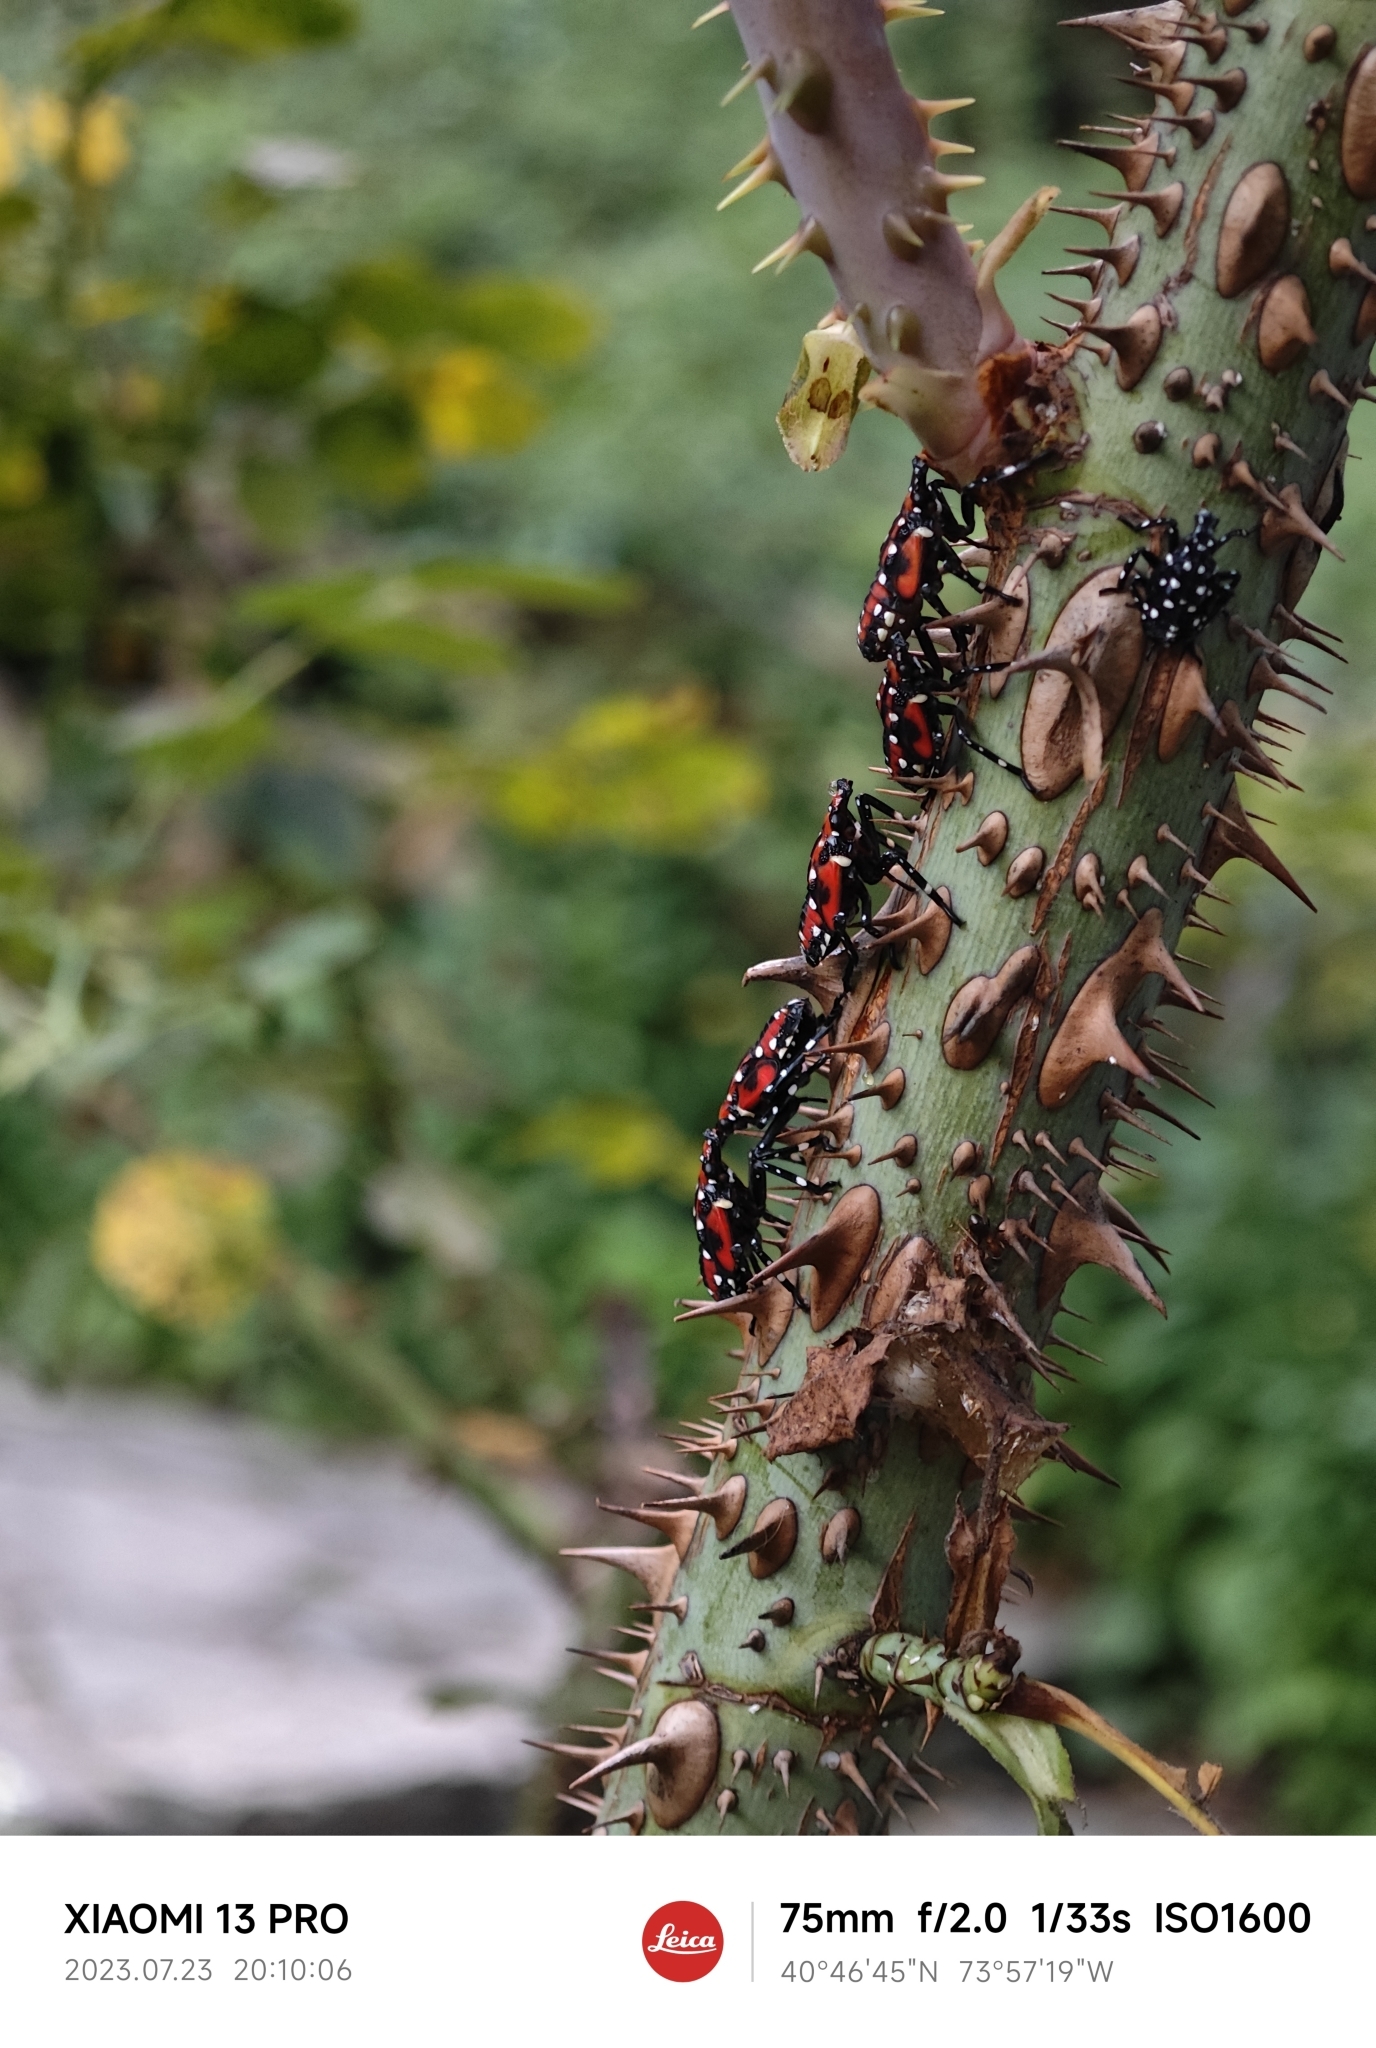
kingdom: Animalia
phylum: Arthropoda
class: Insecta
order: Hemiptera
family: Fulgoridae
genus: Lycorma
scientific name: Lycorma delicatula
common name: Spotted lanternfly
